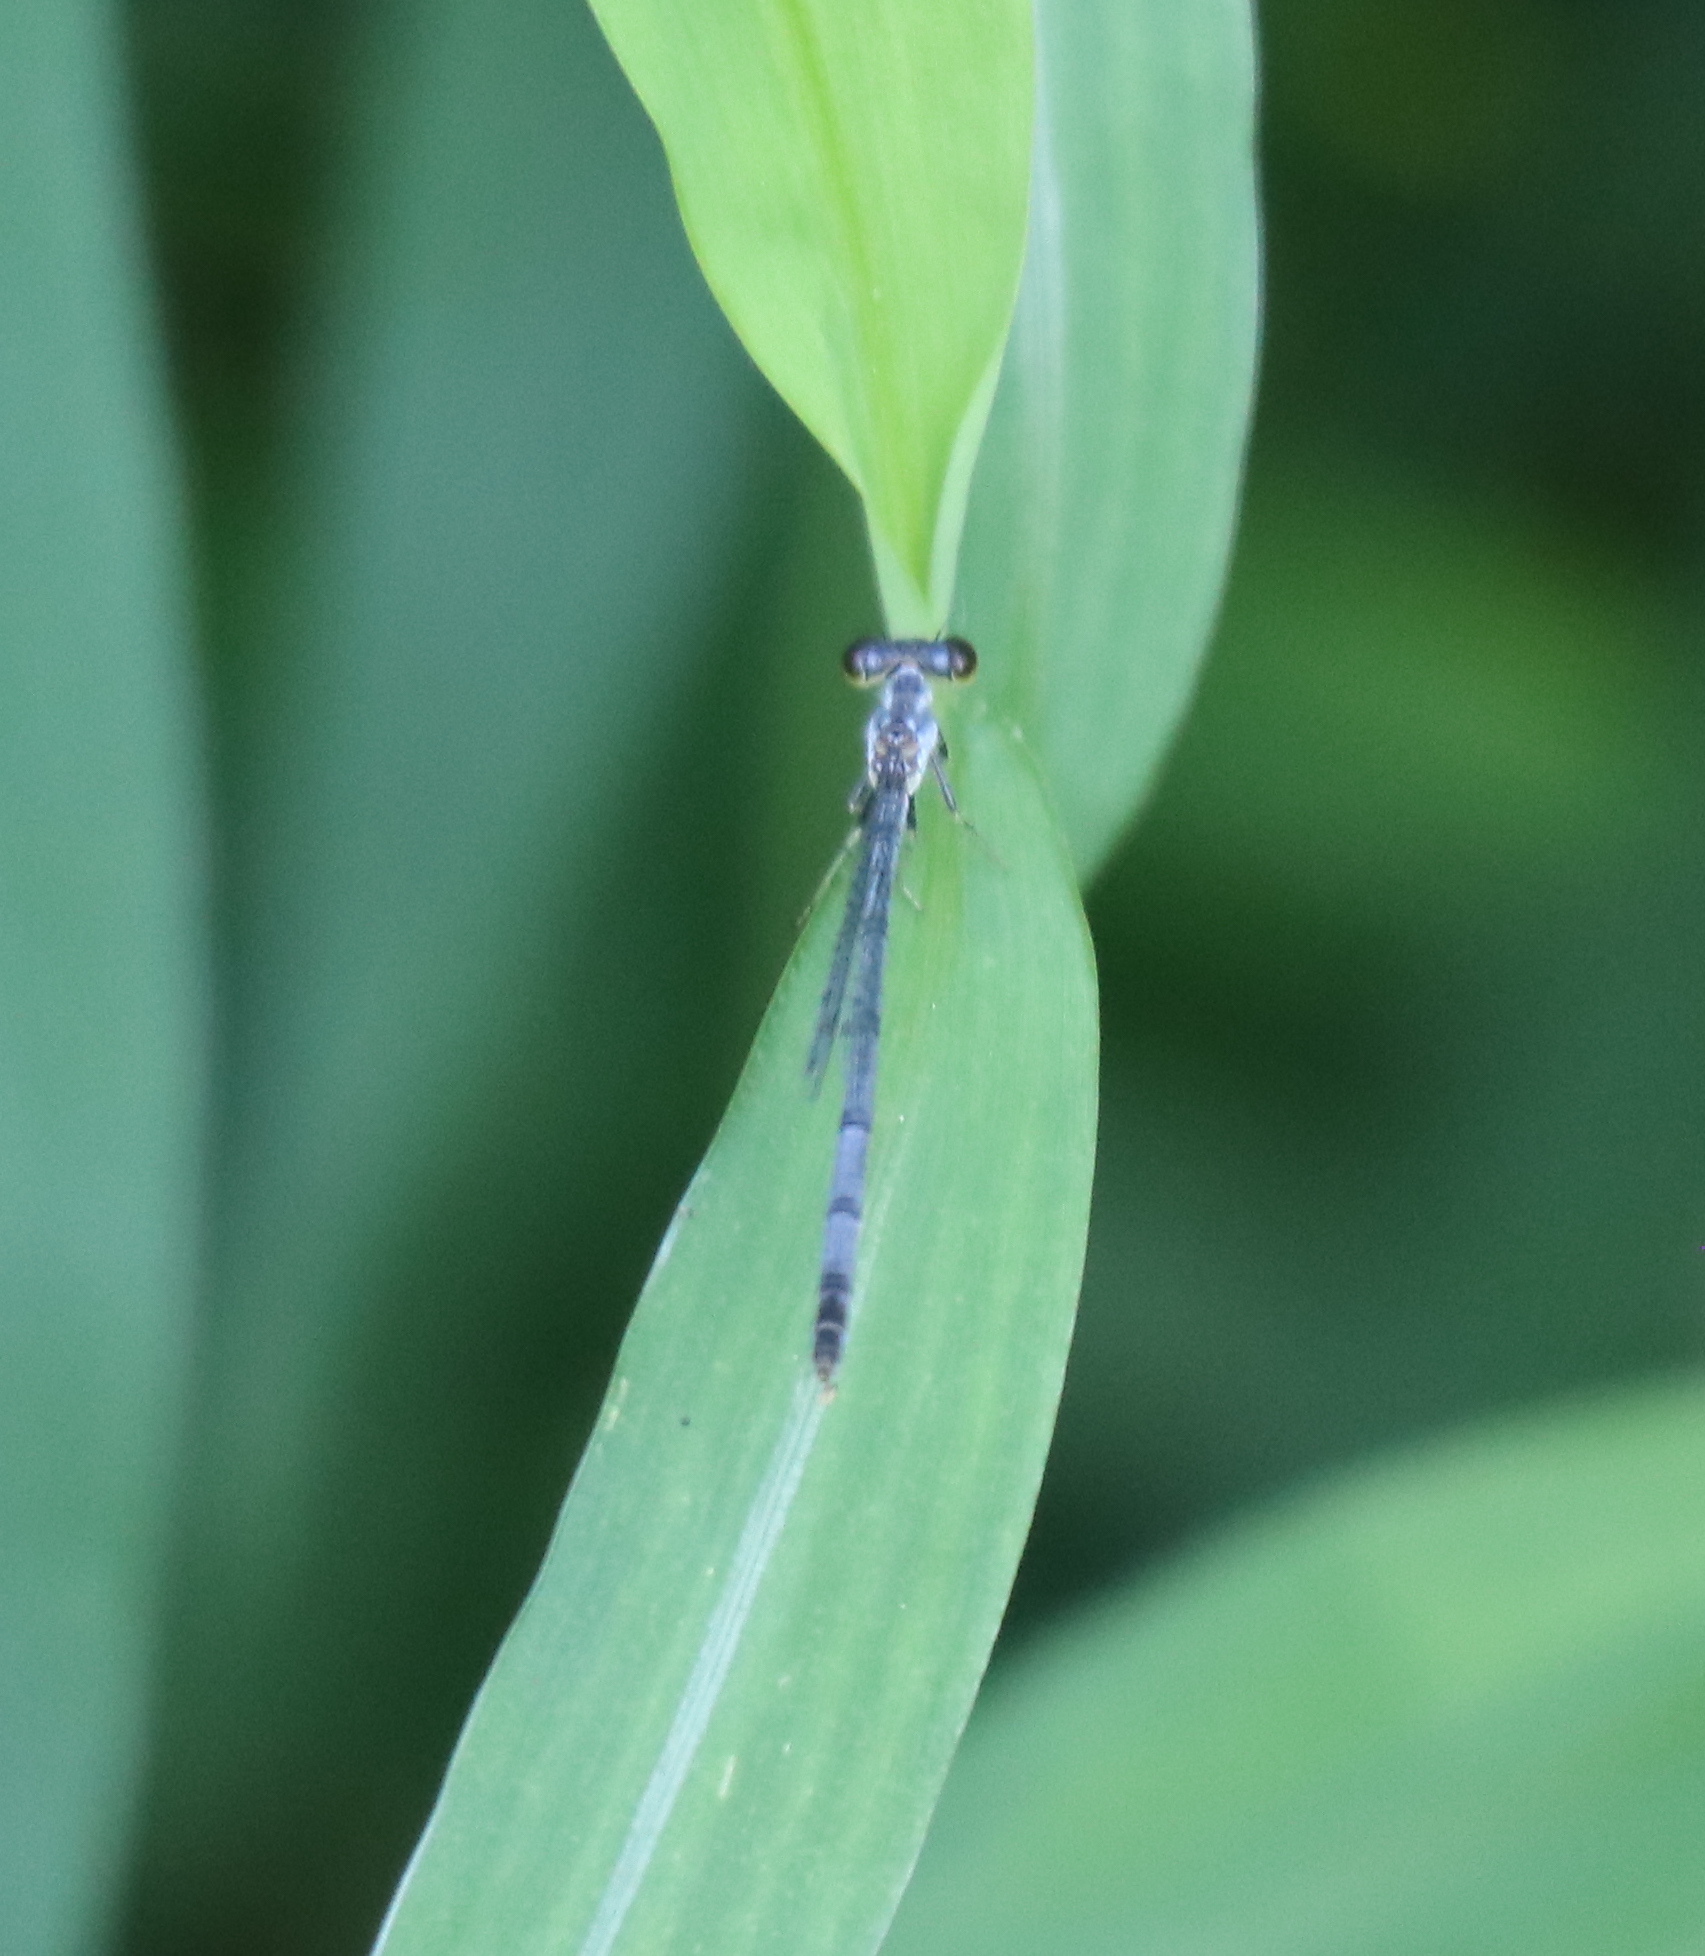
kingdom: Animalia
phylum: Arthropoda
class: Insecta
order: Odonata
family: Coenagrionidae
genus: Ischnura
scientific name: Ischnura posita
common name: Fragile forktail
